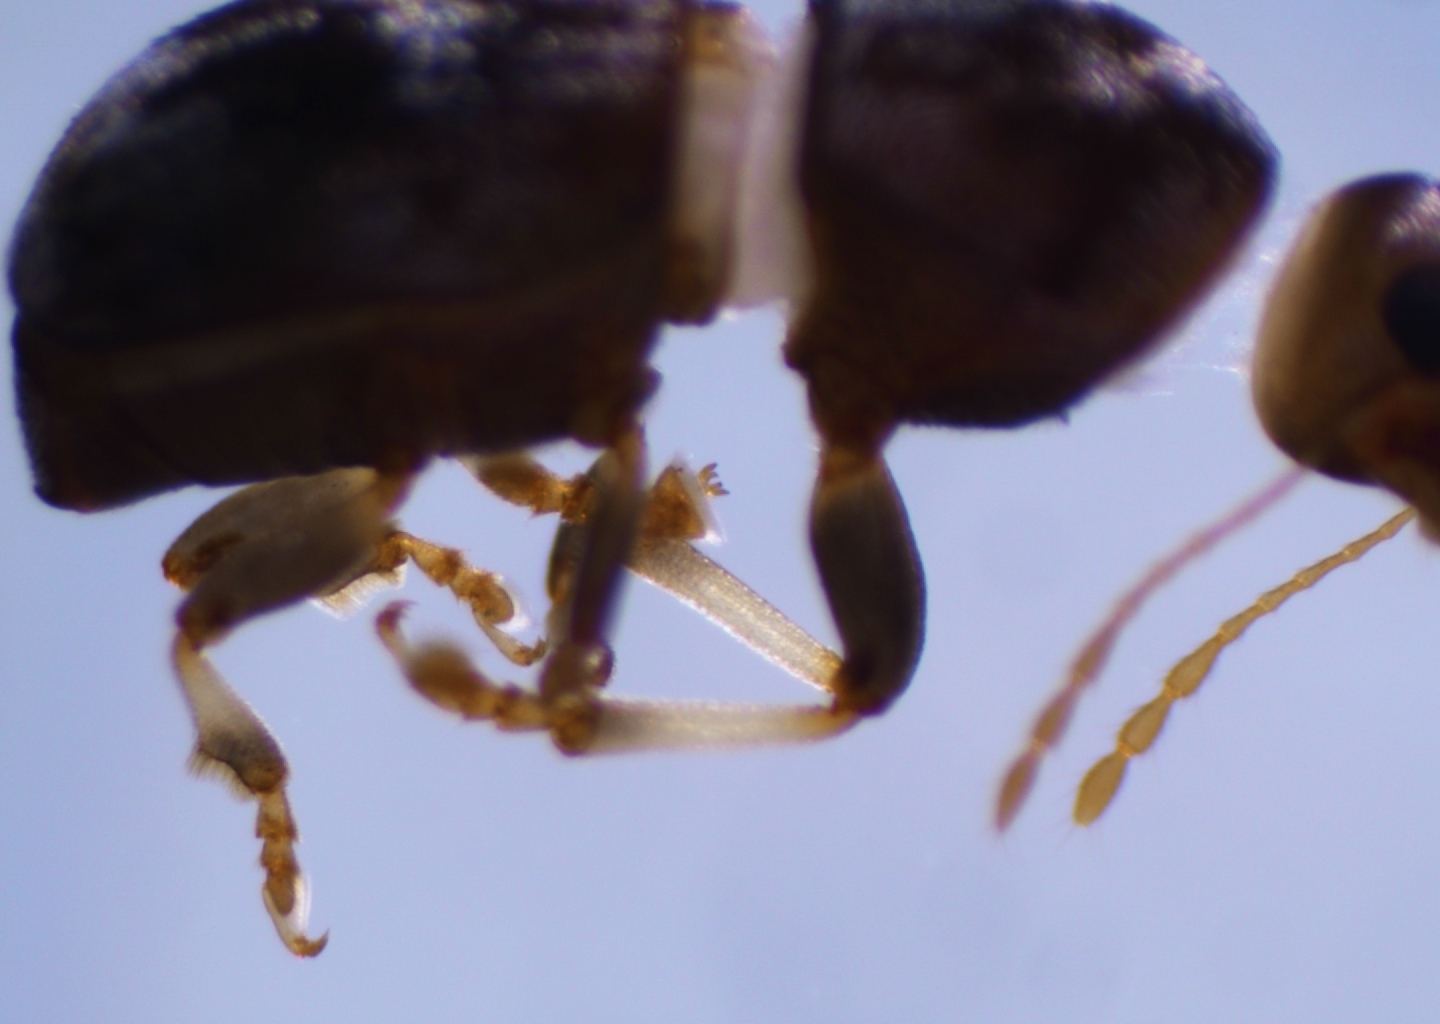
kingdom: Animalia
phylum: Arthropoda
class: Insecta
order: Coleoptera
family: Anthribidae
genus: Stenorhis
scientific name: Stenorhis ampedus
